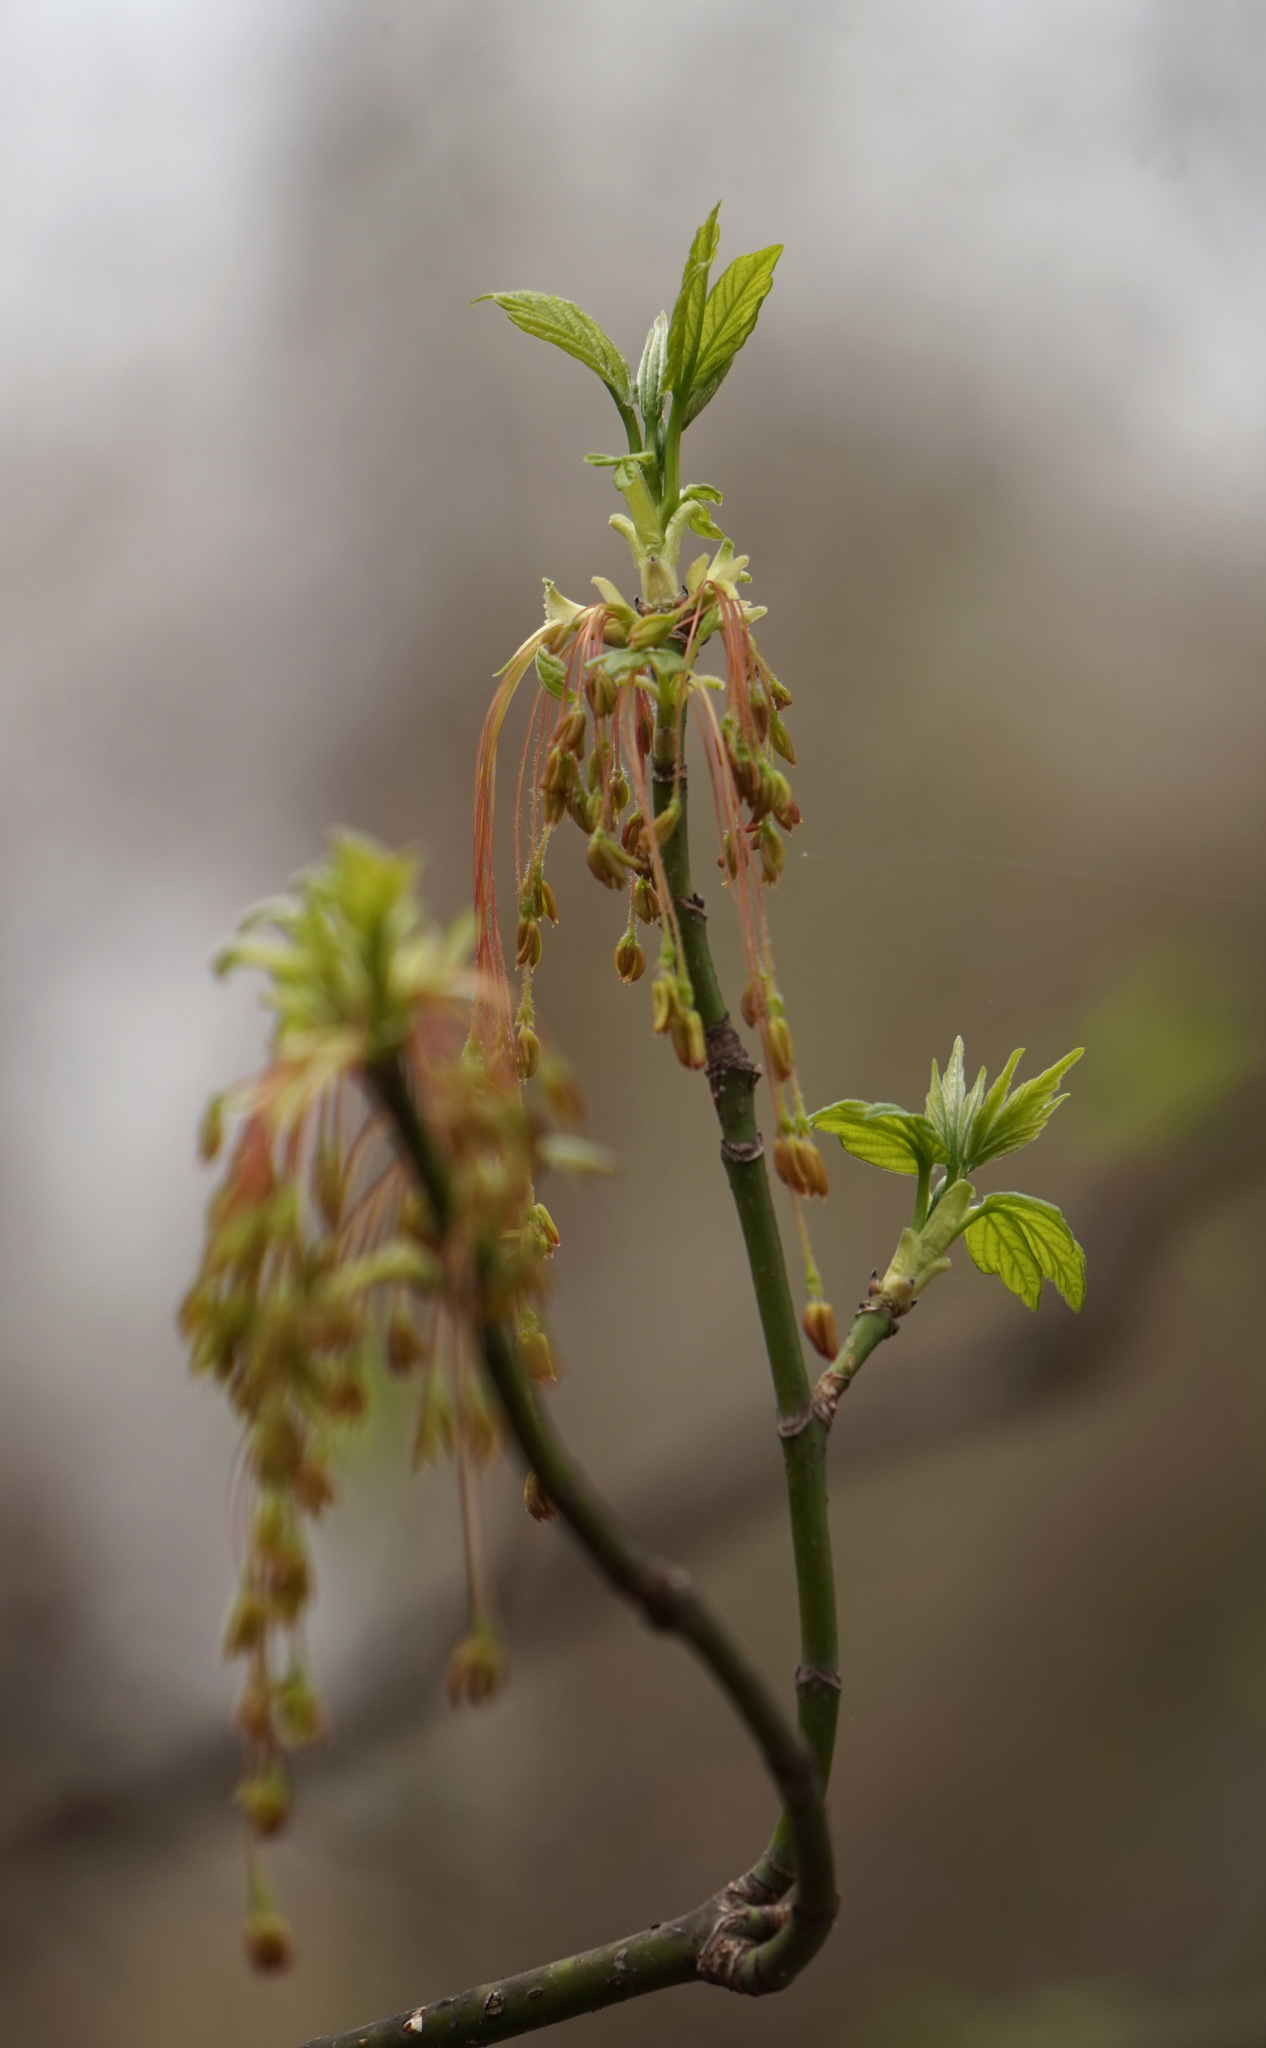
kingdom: Plantae
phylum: Tracheophyta
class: Magnoliopsida
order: Sapindales
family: Sapindaceae
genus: Acer
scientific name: Acer negundo
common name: Ashleaf maple
